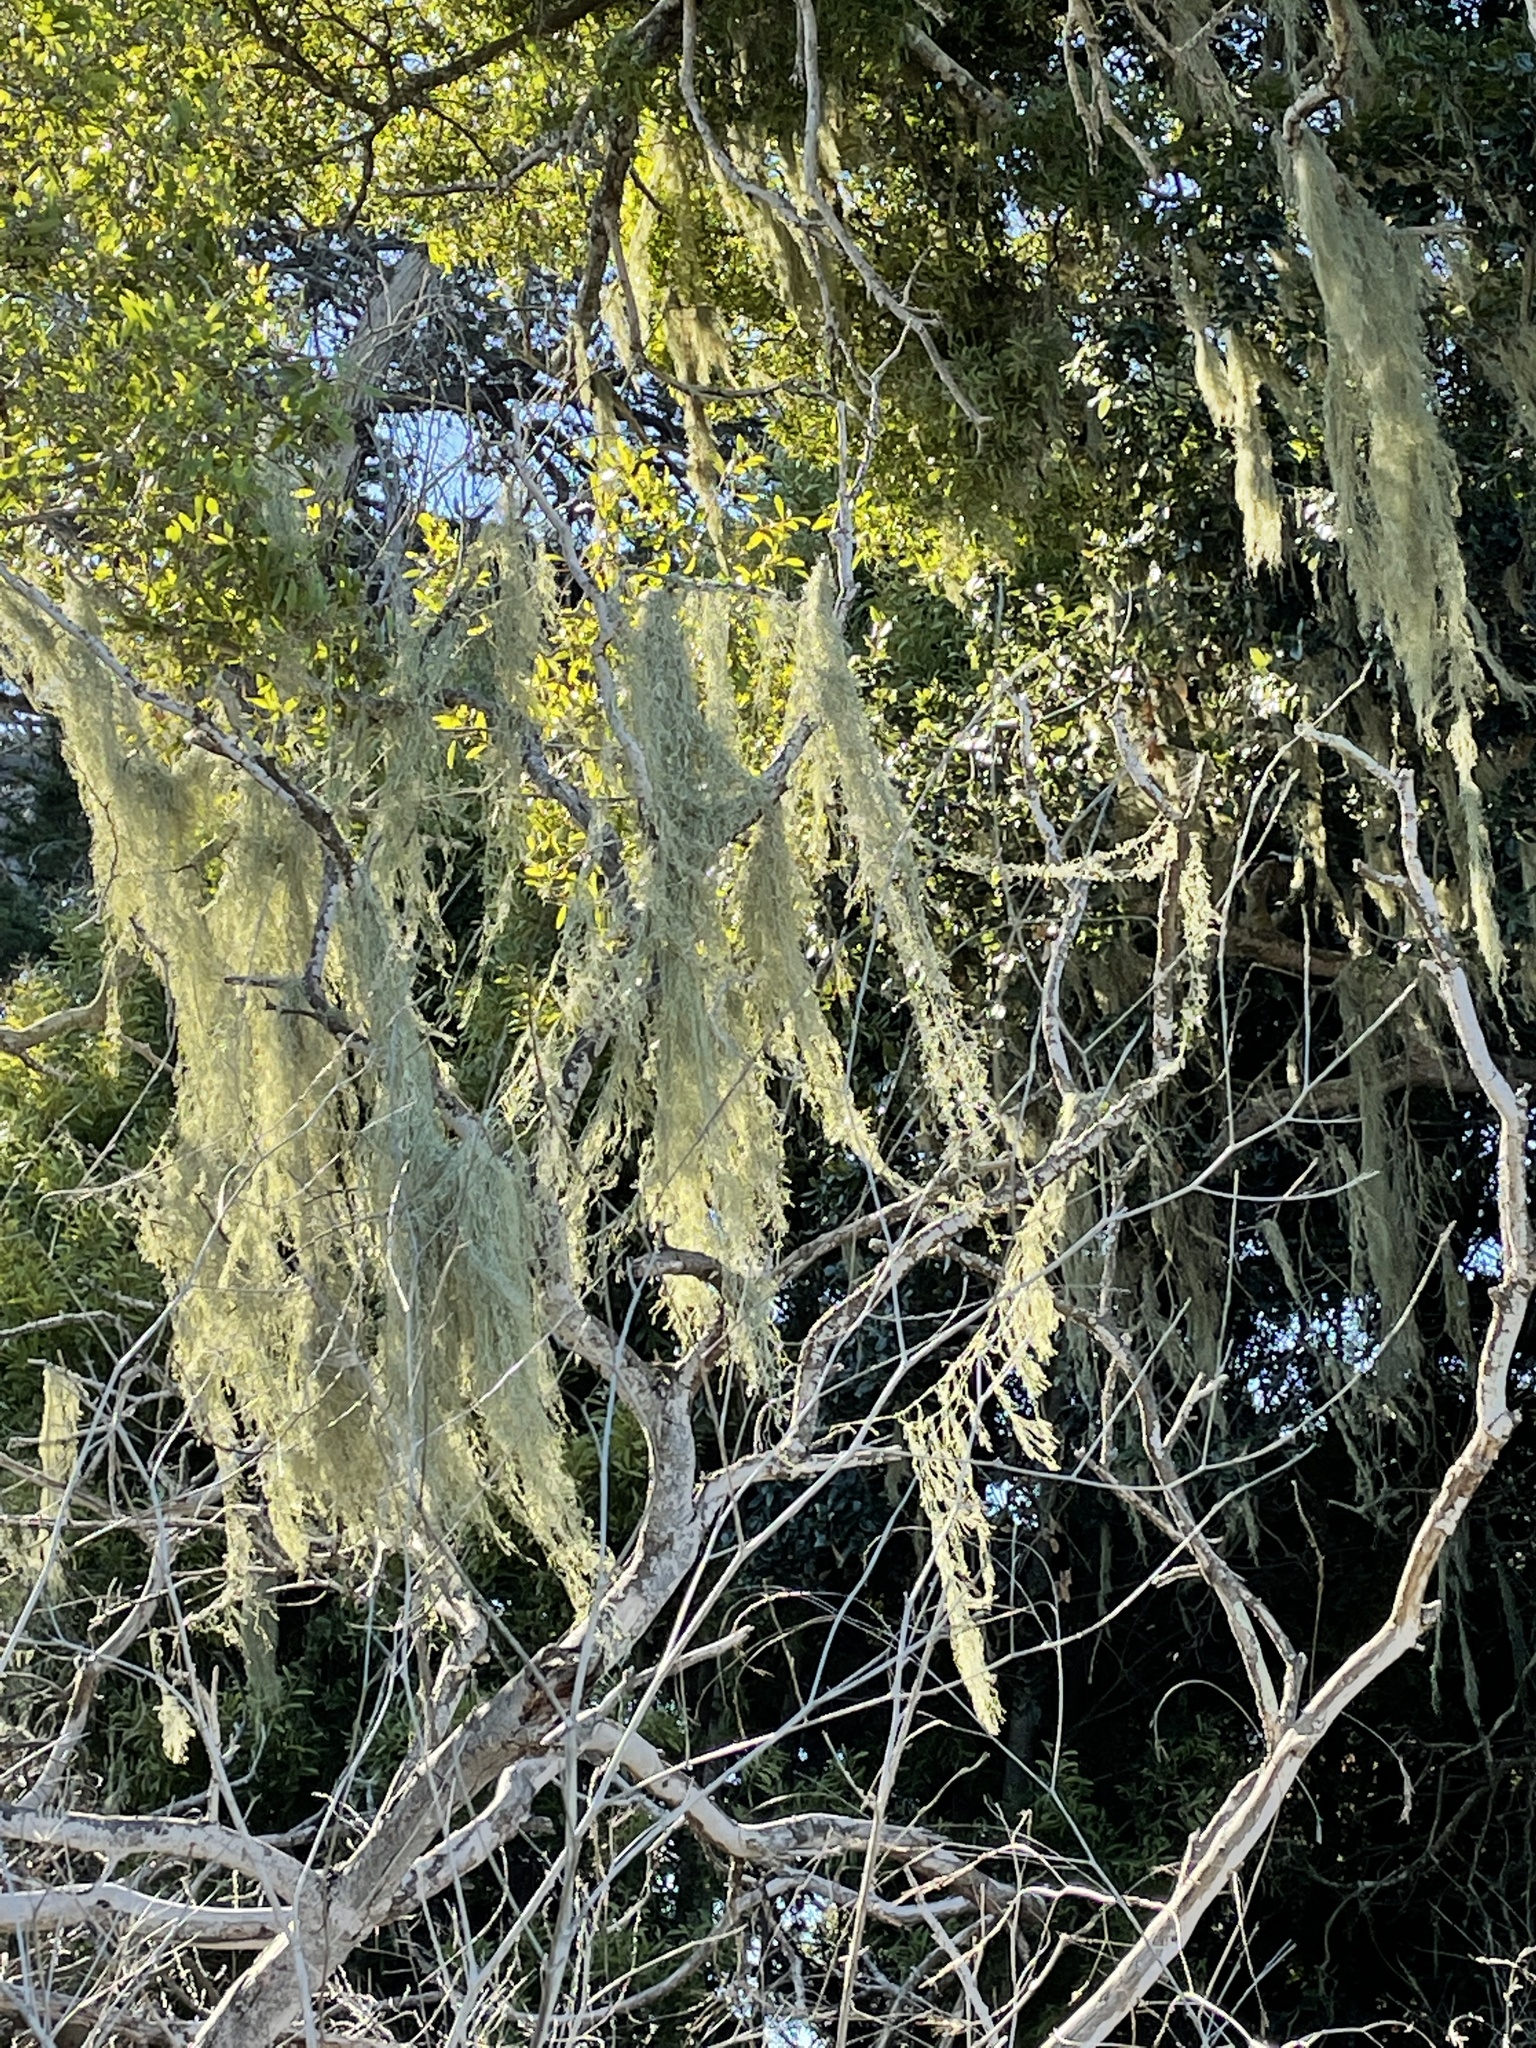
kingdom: Fungi
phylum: Ascomycota
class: Lecanoromycetes
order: Lecanorales
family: Ramalinaceae
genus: Ramalina
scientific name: Ramalina menziesii
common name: Lace lichen
